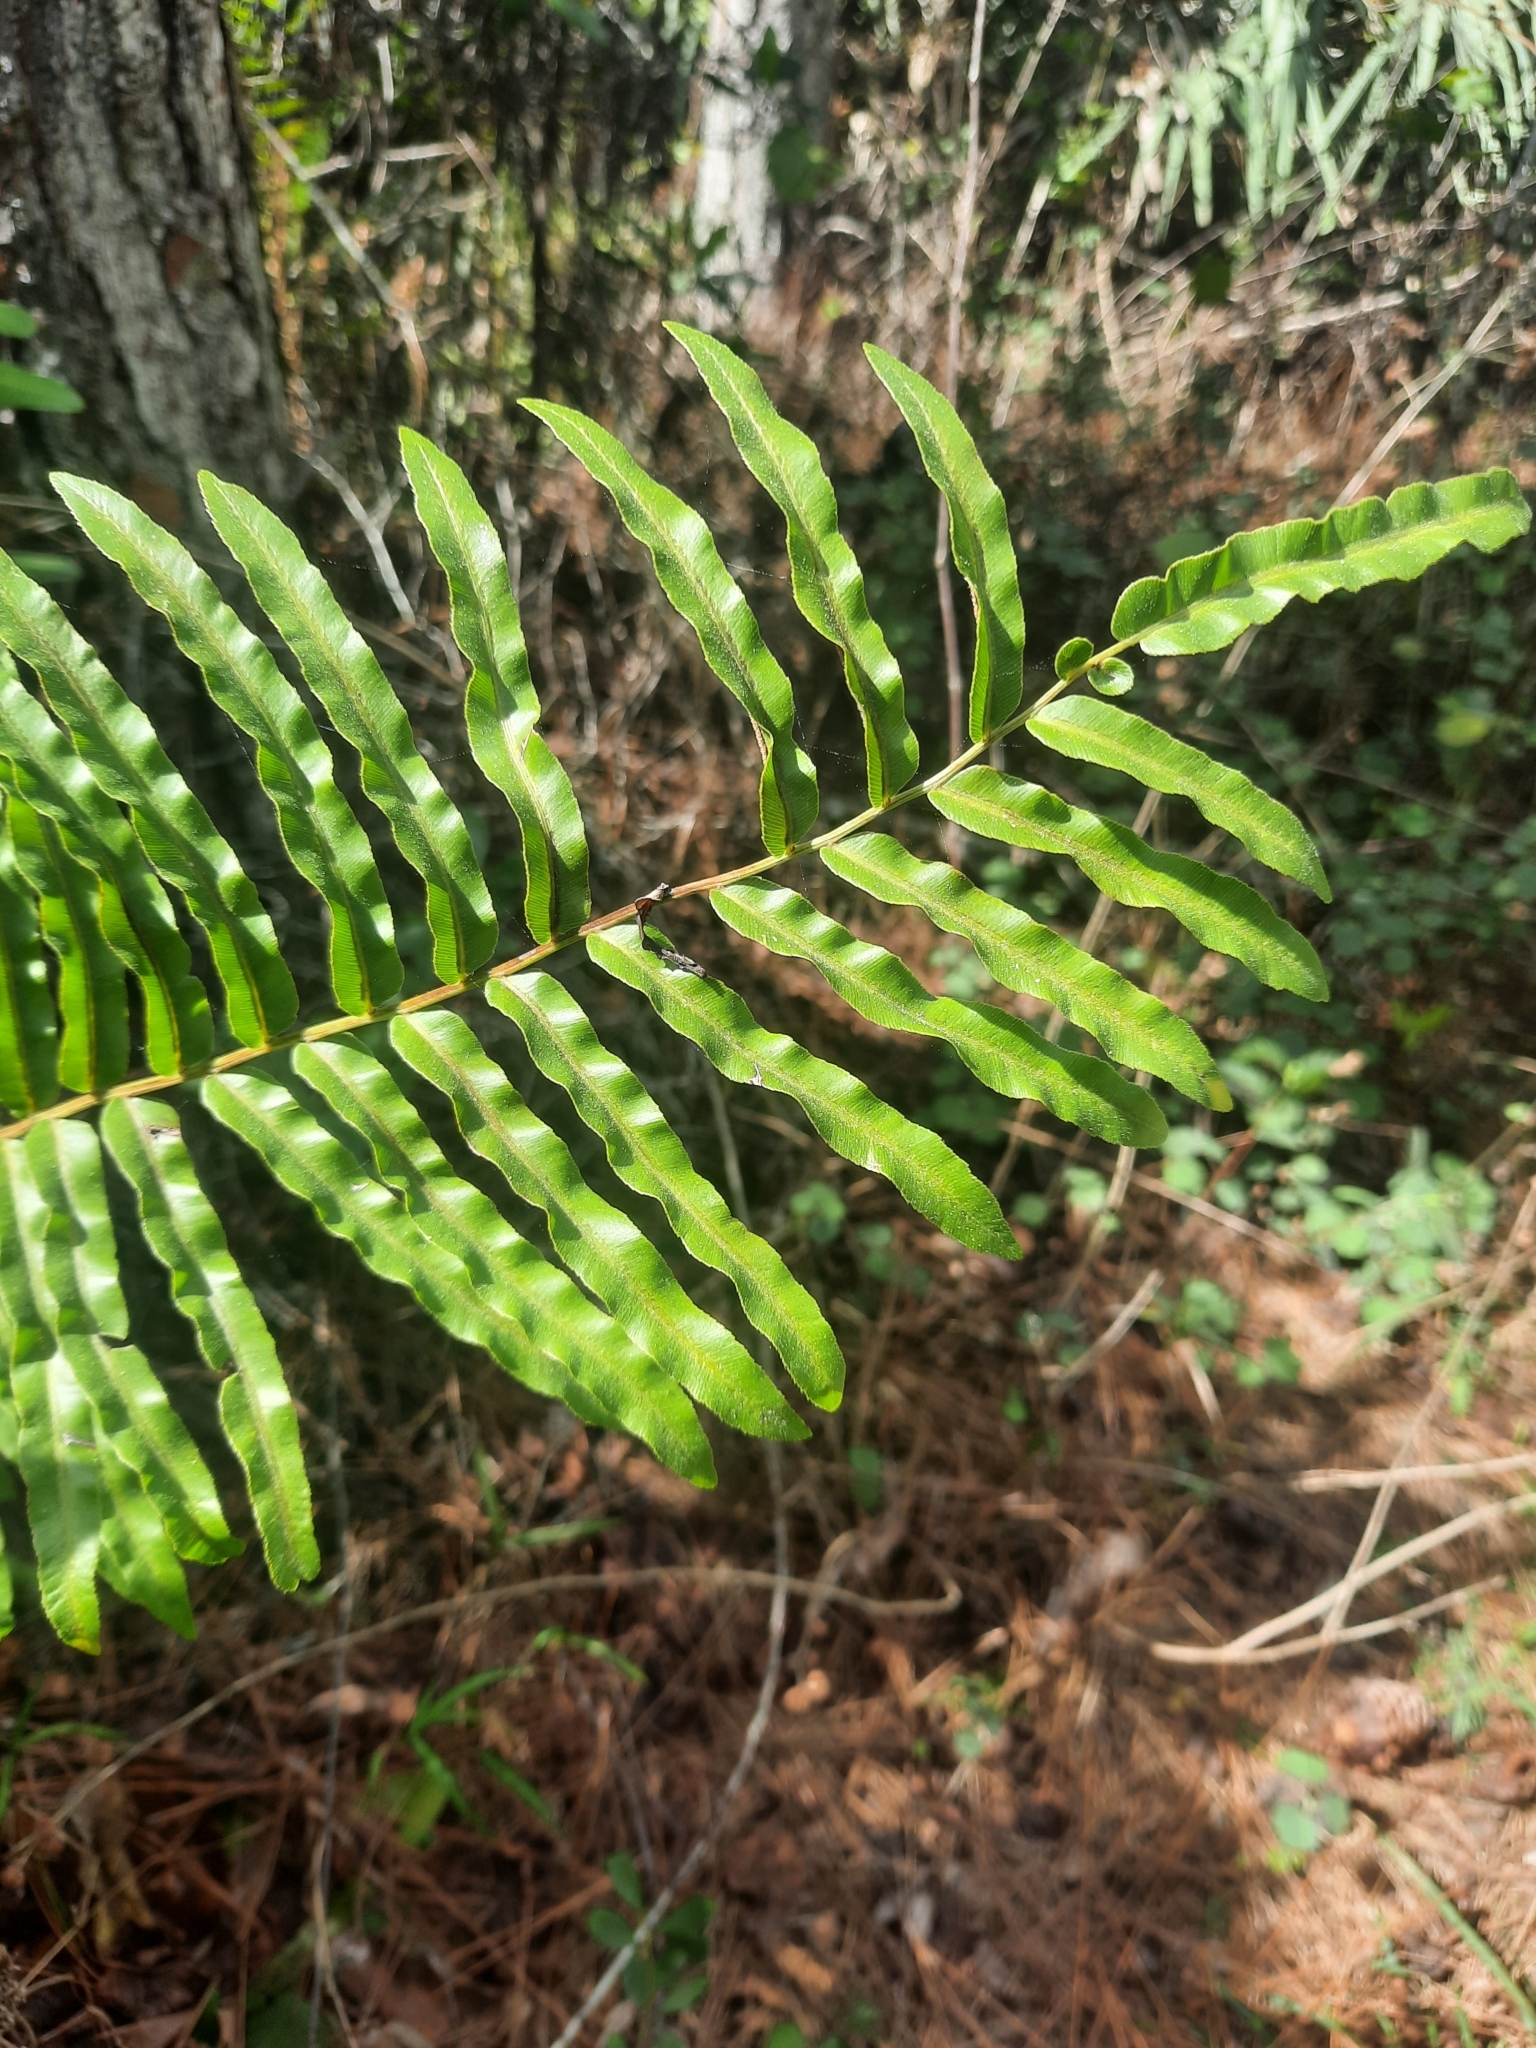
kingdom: Plantae
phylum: Tracheophyta
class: Polypodiopsida
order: Polypodiales
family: Blechnaceae
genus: Telmatoblechnum
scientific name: Telmatoblechnum serrulatum
